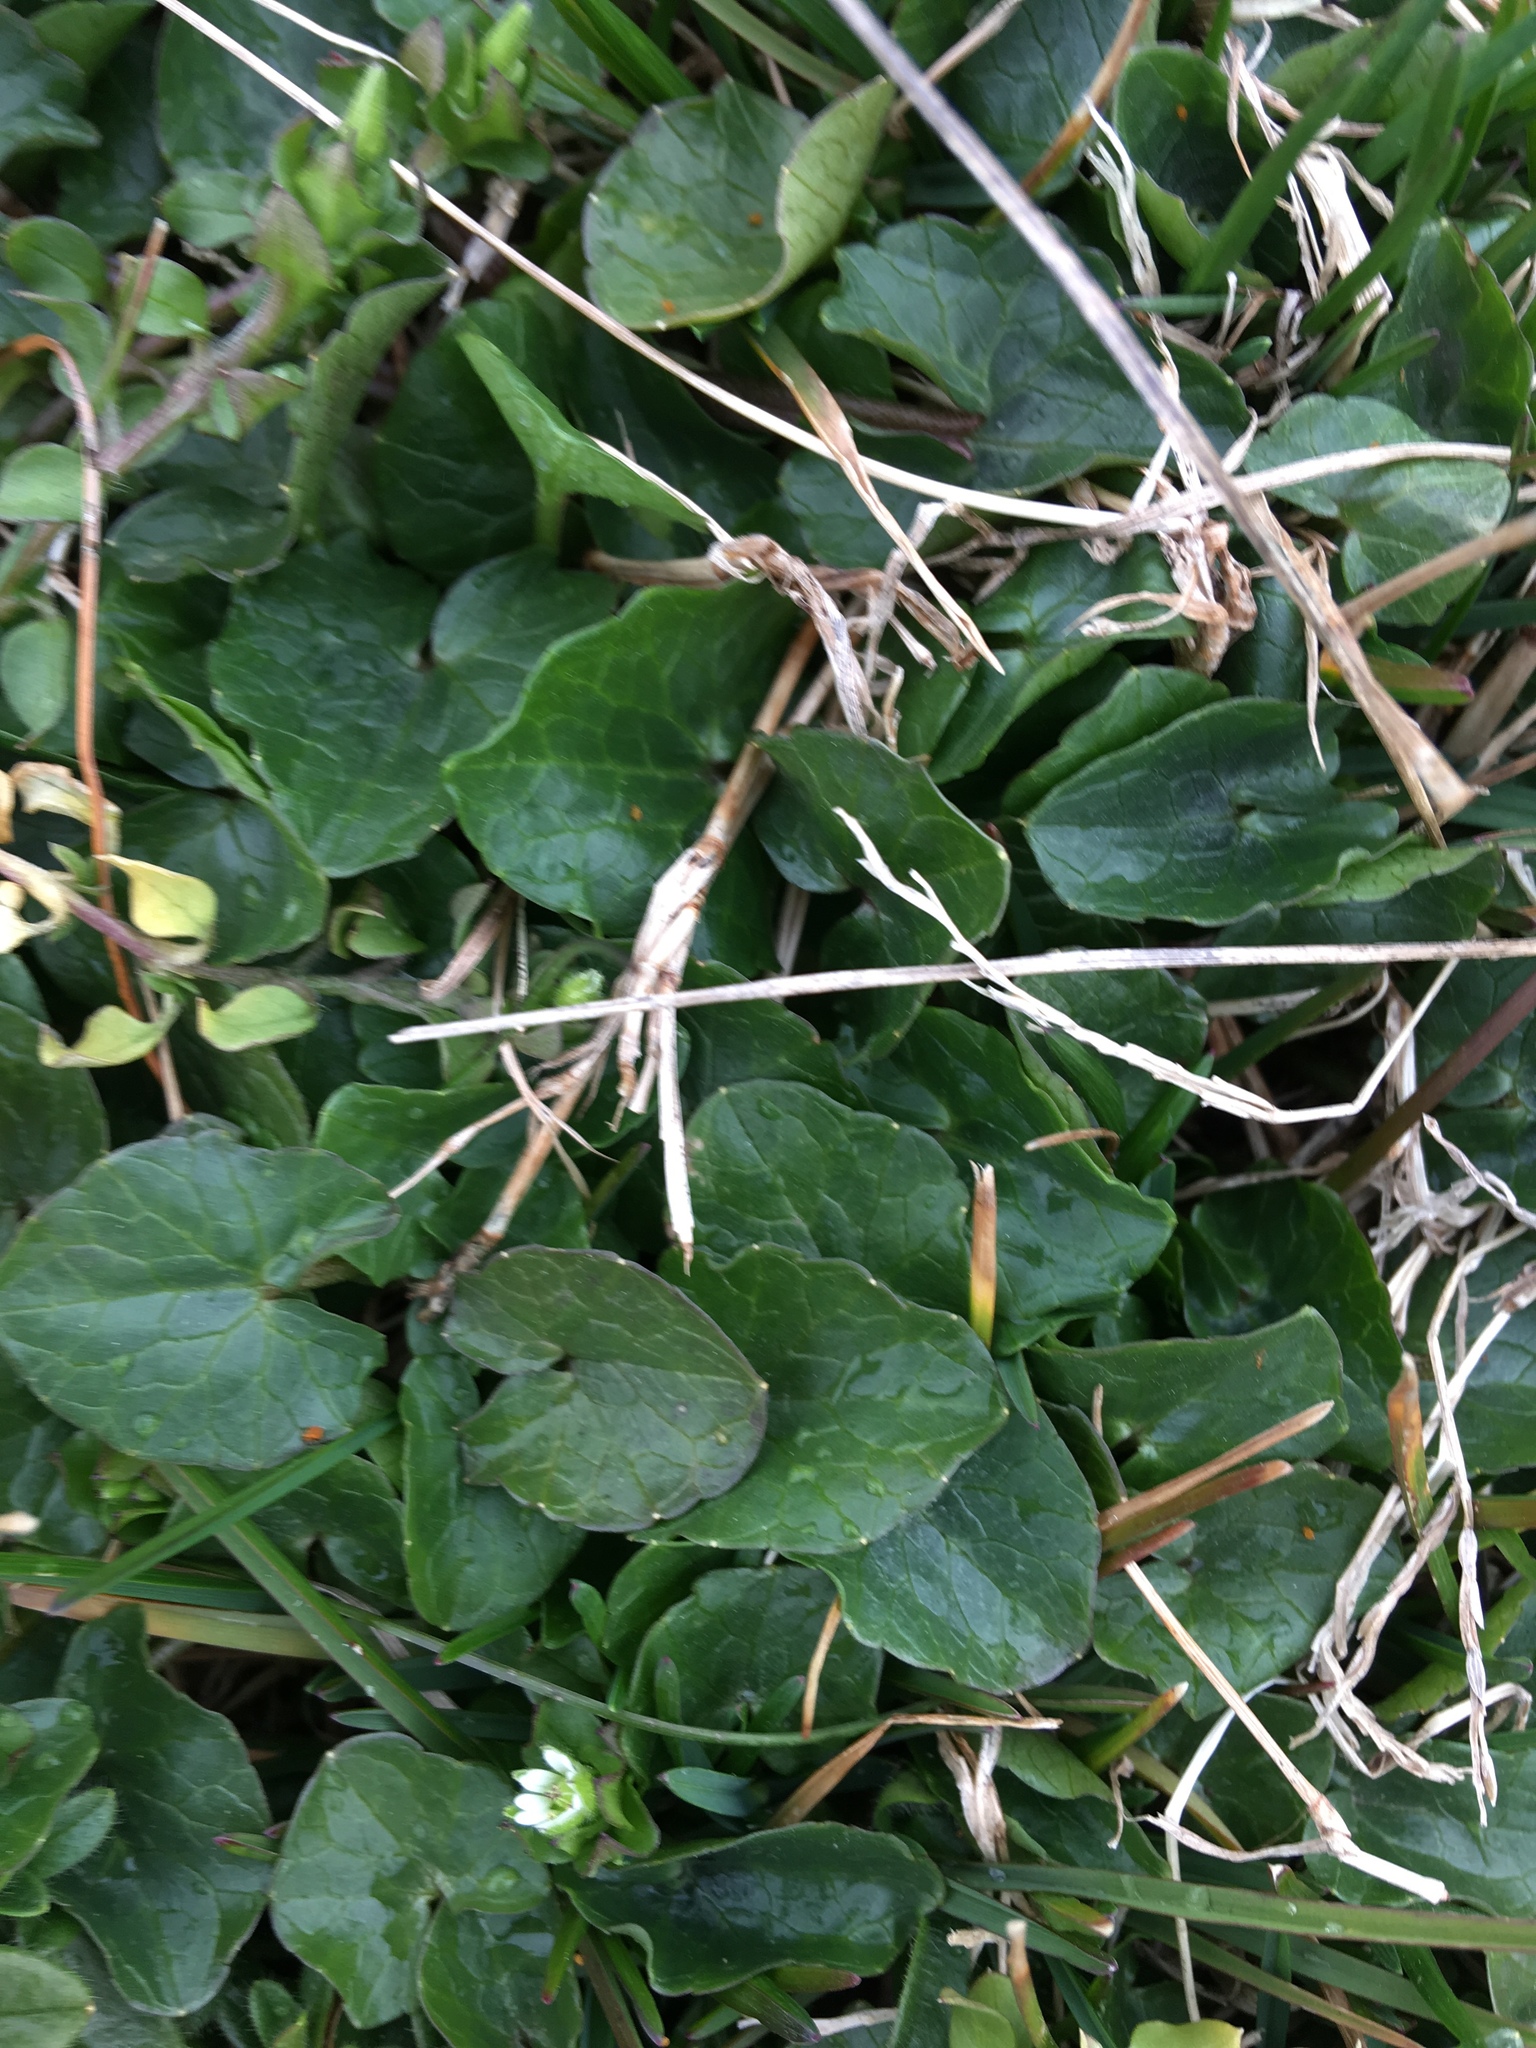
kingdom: Plantae
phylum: Tracheophyta
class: Magnoliopsida
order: Ranunculales
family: Ranunculaceae
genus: Ficaria
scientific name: Ficaria verna
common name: Lesser celandine
